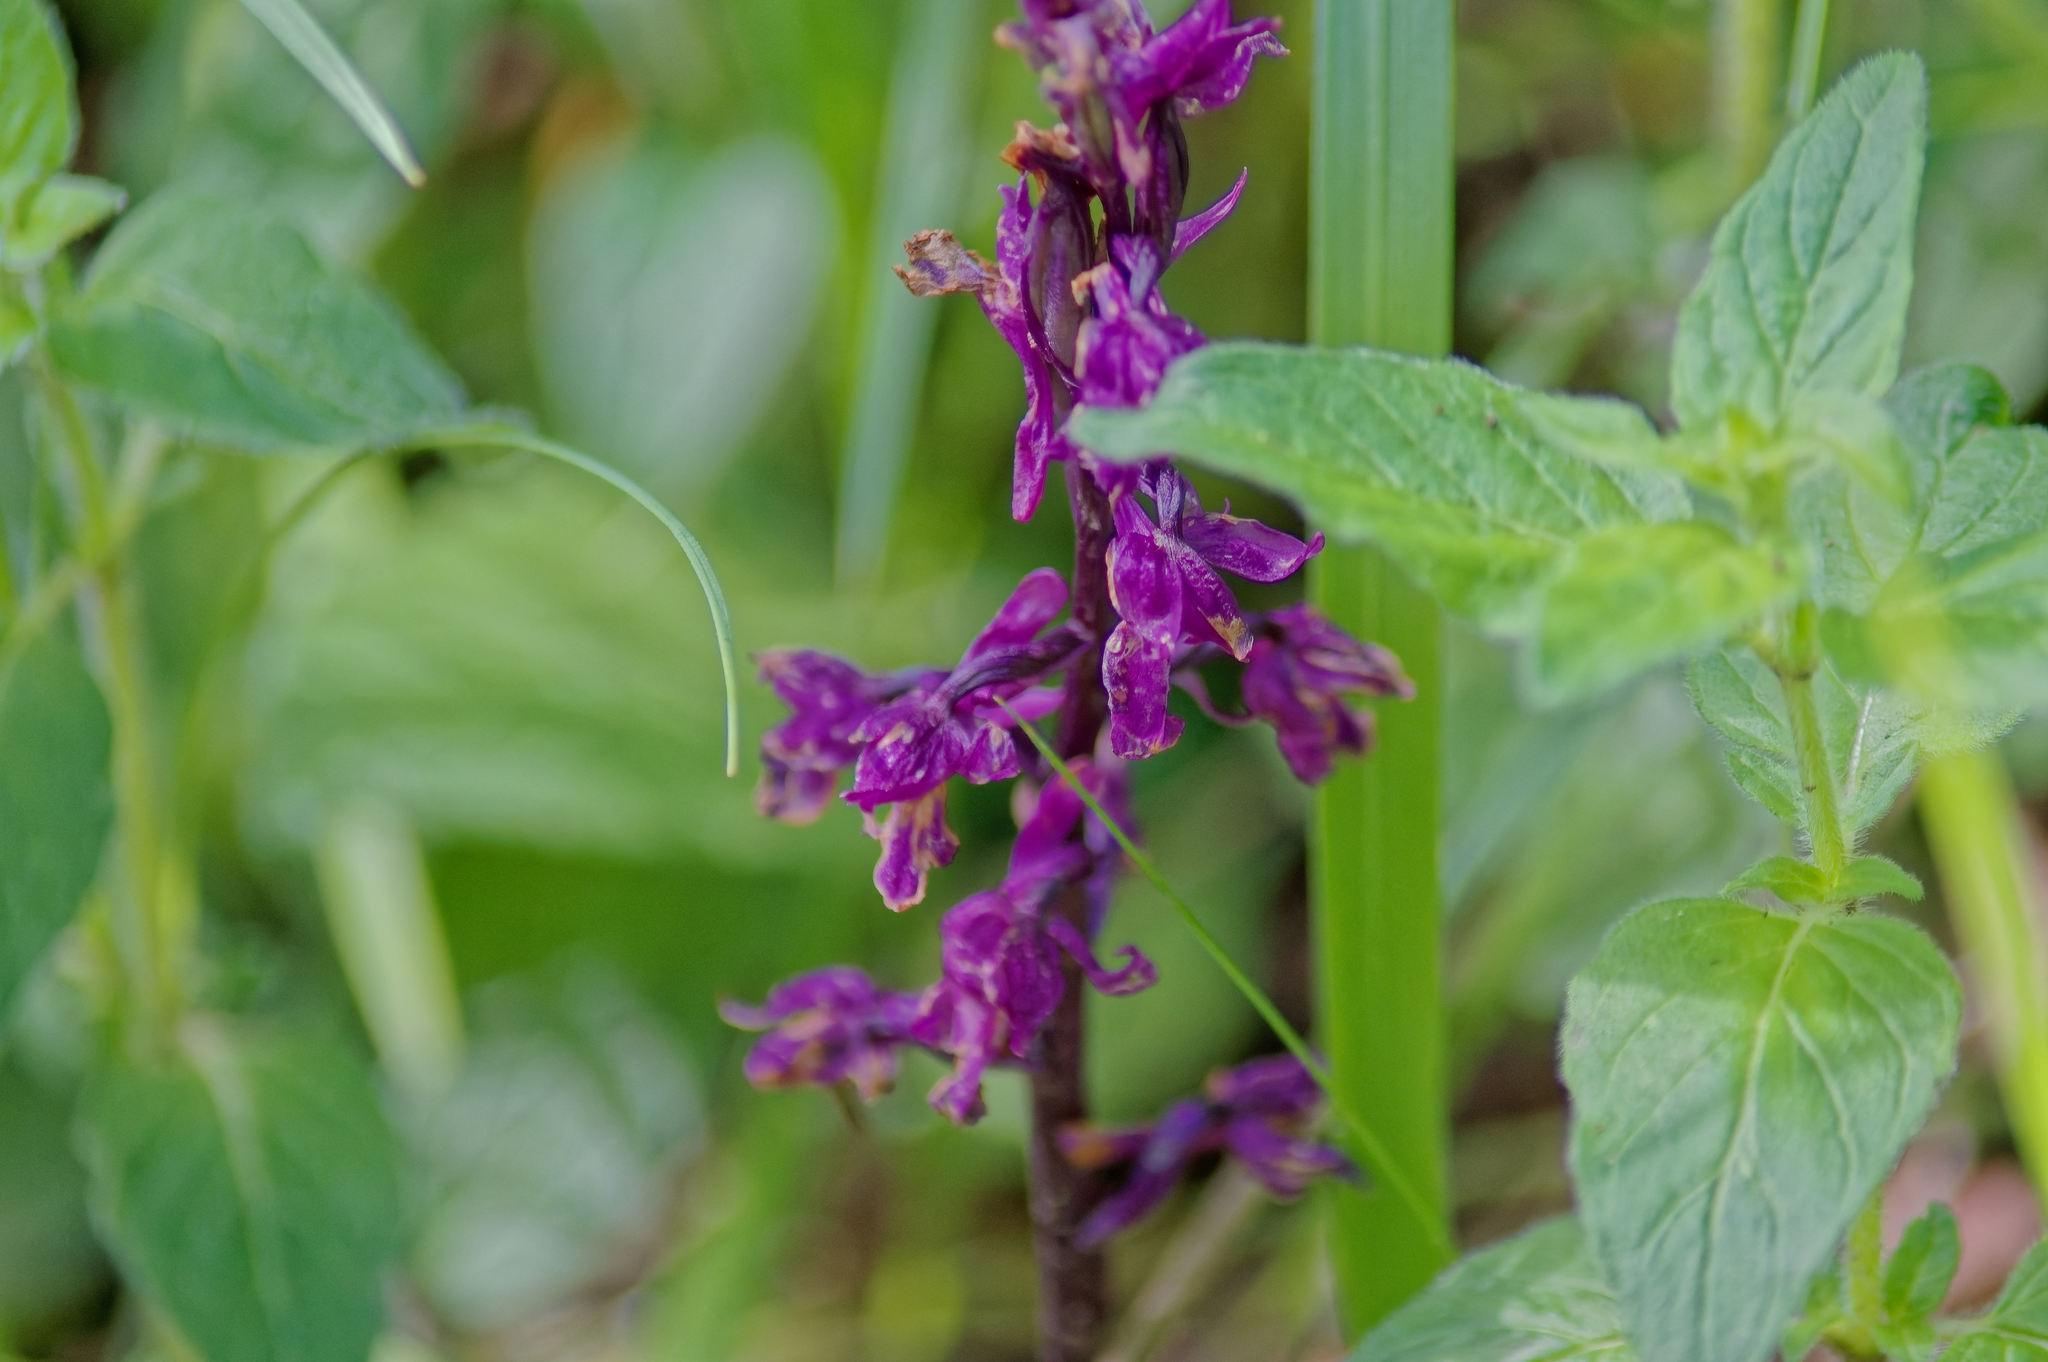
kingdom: Plantae
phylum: Tracheophyta
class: Liliopsida
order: Asparagales
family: Orchidaceae
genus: Orchis
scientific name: Orchis mascula
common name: Early-purple orchid
